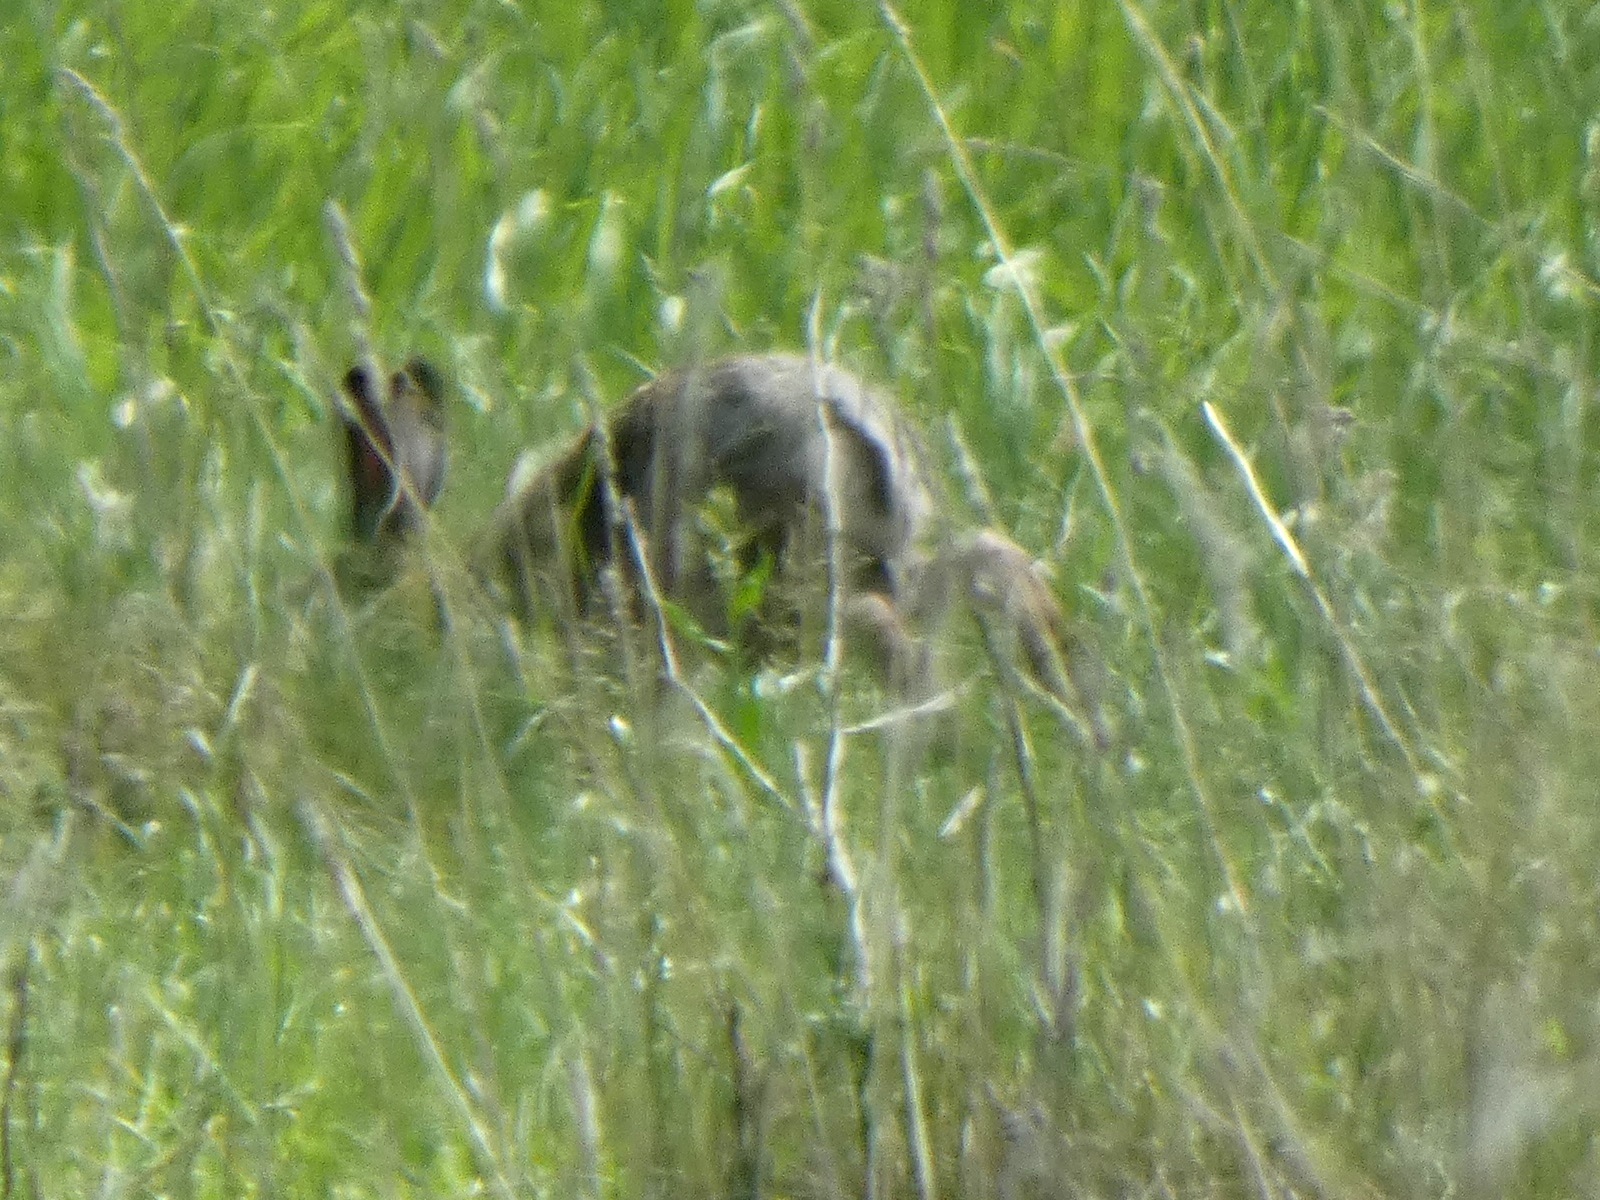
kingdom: Animalia
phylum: Chordata
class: Mammalia
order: Lagomorpha
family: Leporidae
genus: Lepus
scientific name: Lepus europaeus
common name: European hare
